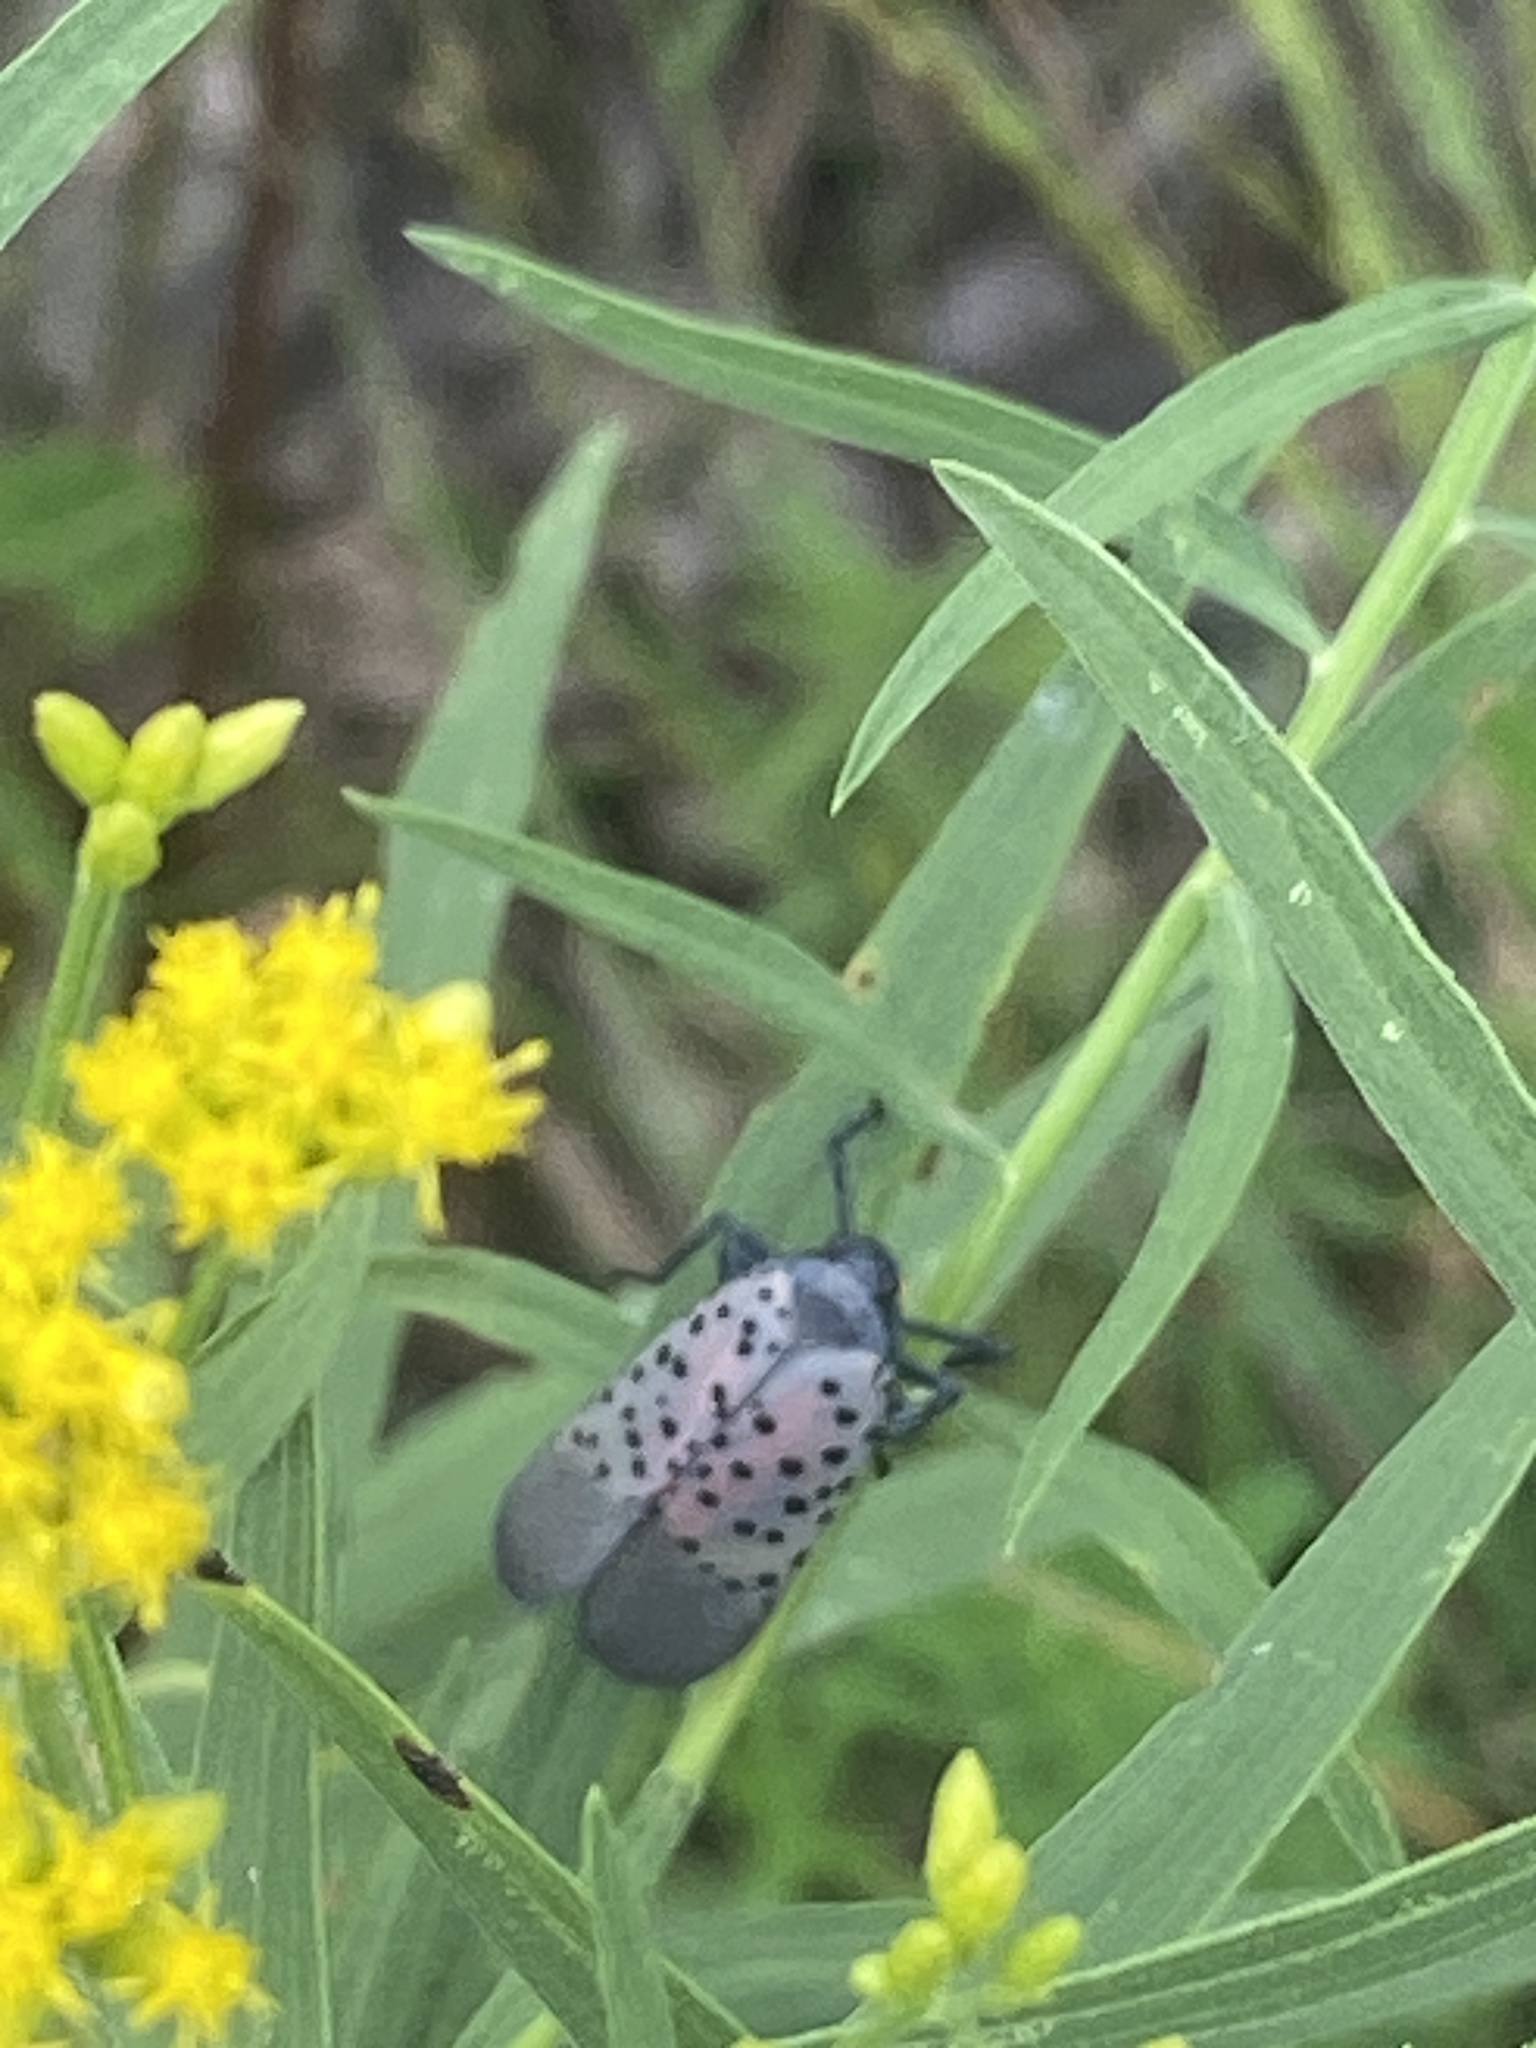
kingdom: Animalia
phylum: Arthropoda
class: Insecta
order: Hemiptera
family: Fulgoridae
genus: Lycorma
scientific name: Lycorma delicatula
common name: Spotted lanternfly
